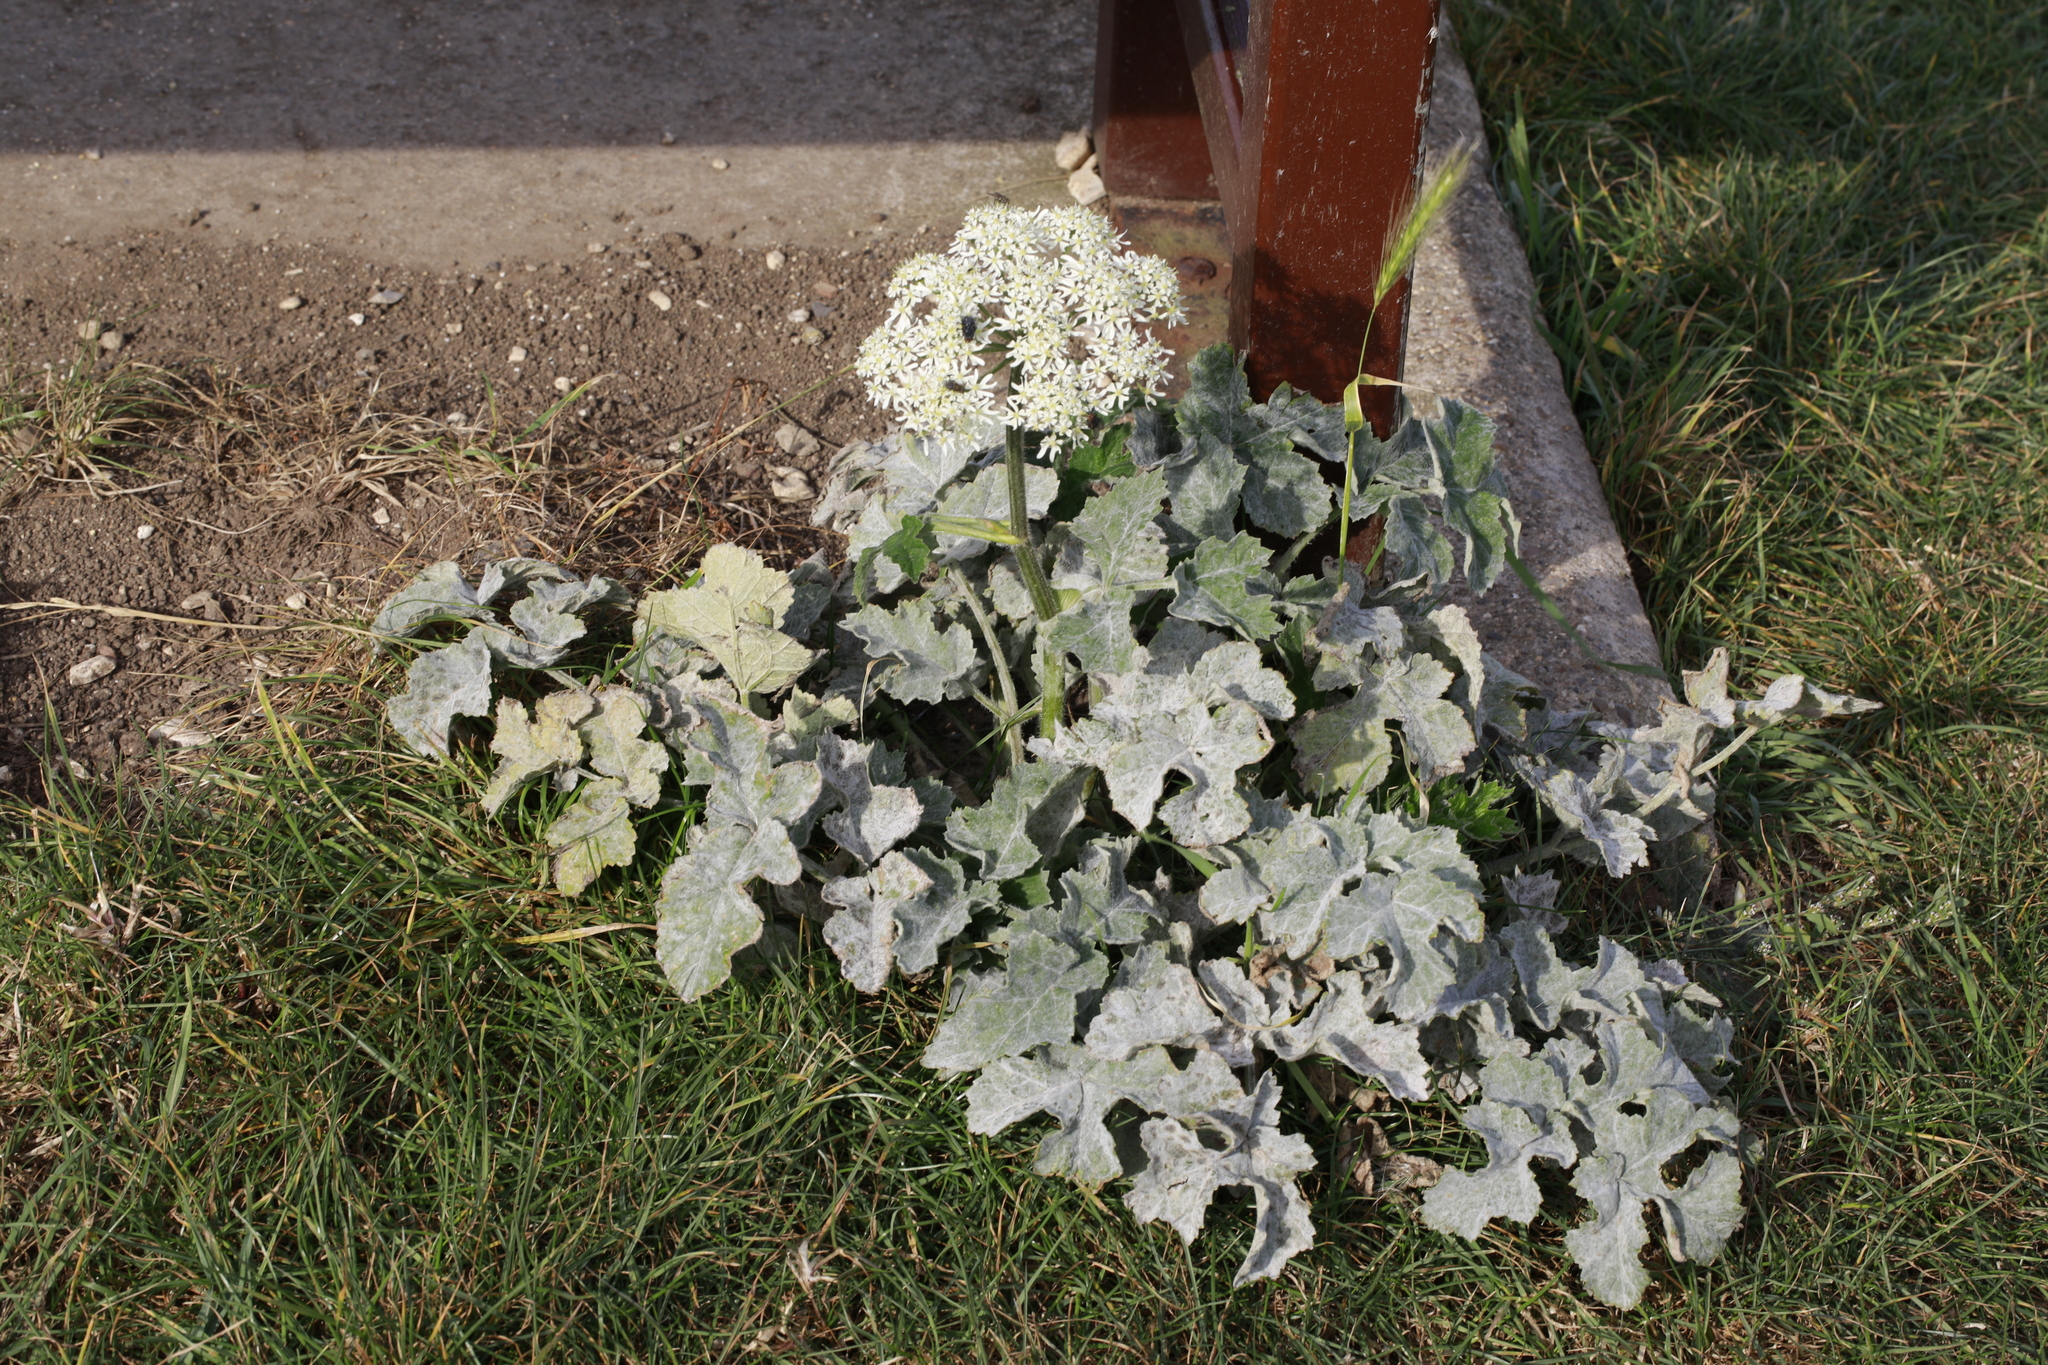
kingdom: Fungi
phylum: Ascomycota
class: Leotiomycetes
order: Helotiales
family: Erysiphaceae
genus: Erysiphe
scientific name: Erysiphe heraclei
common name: Umbellifer mildew
